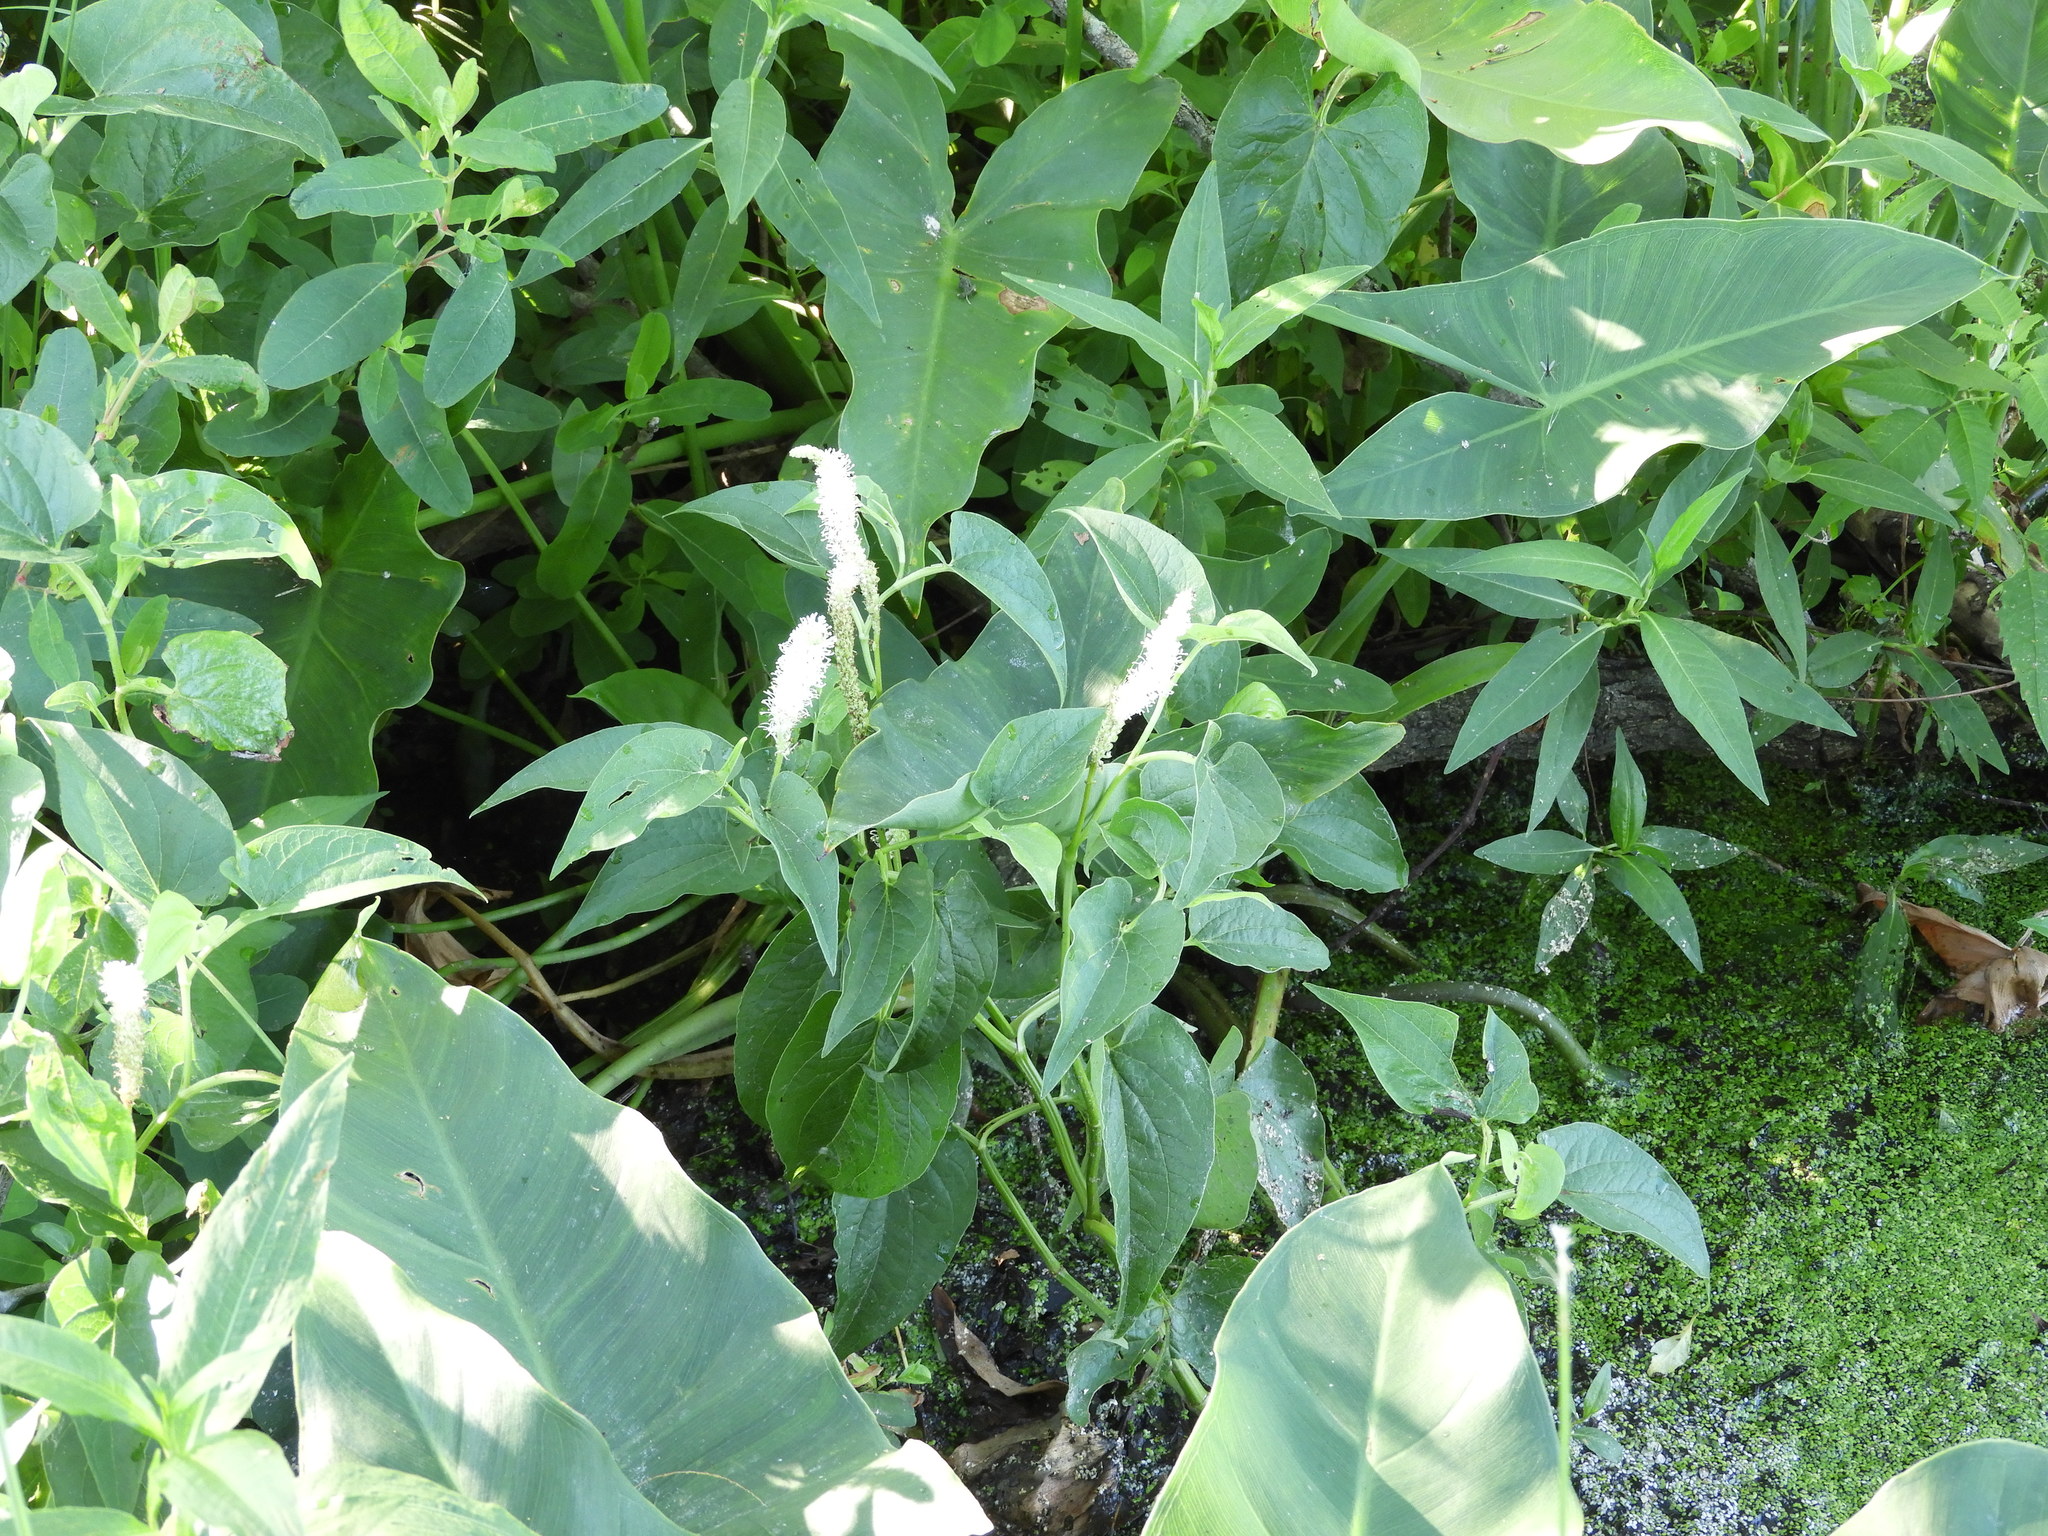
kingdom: Plantae
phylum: Tracheophyta
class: Magnoliopsida
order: Piperales
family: Saururaceae
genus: Saururus
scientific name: Saururus cernuus
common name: Lizard's-tail
